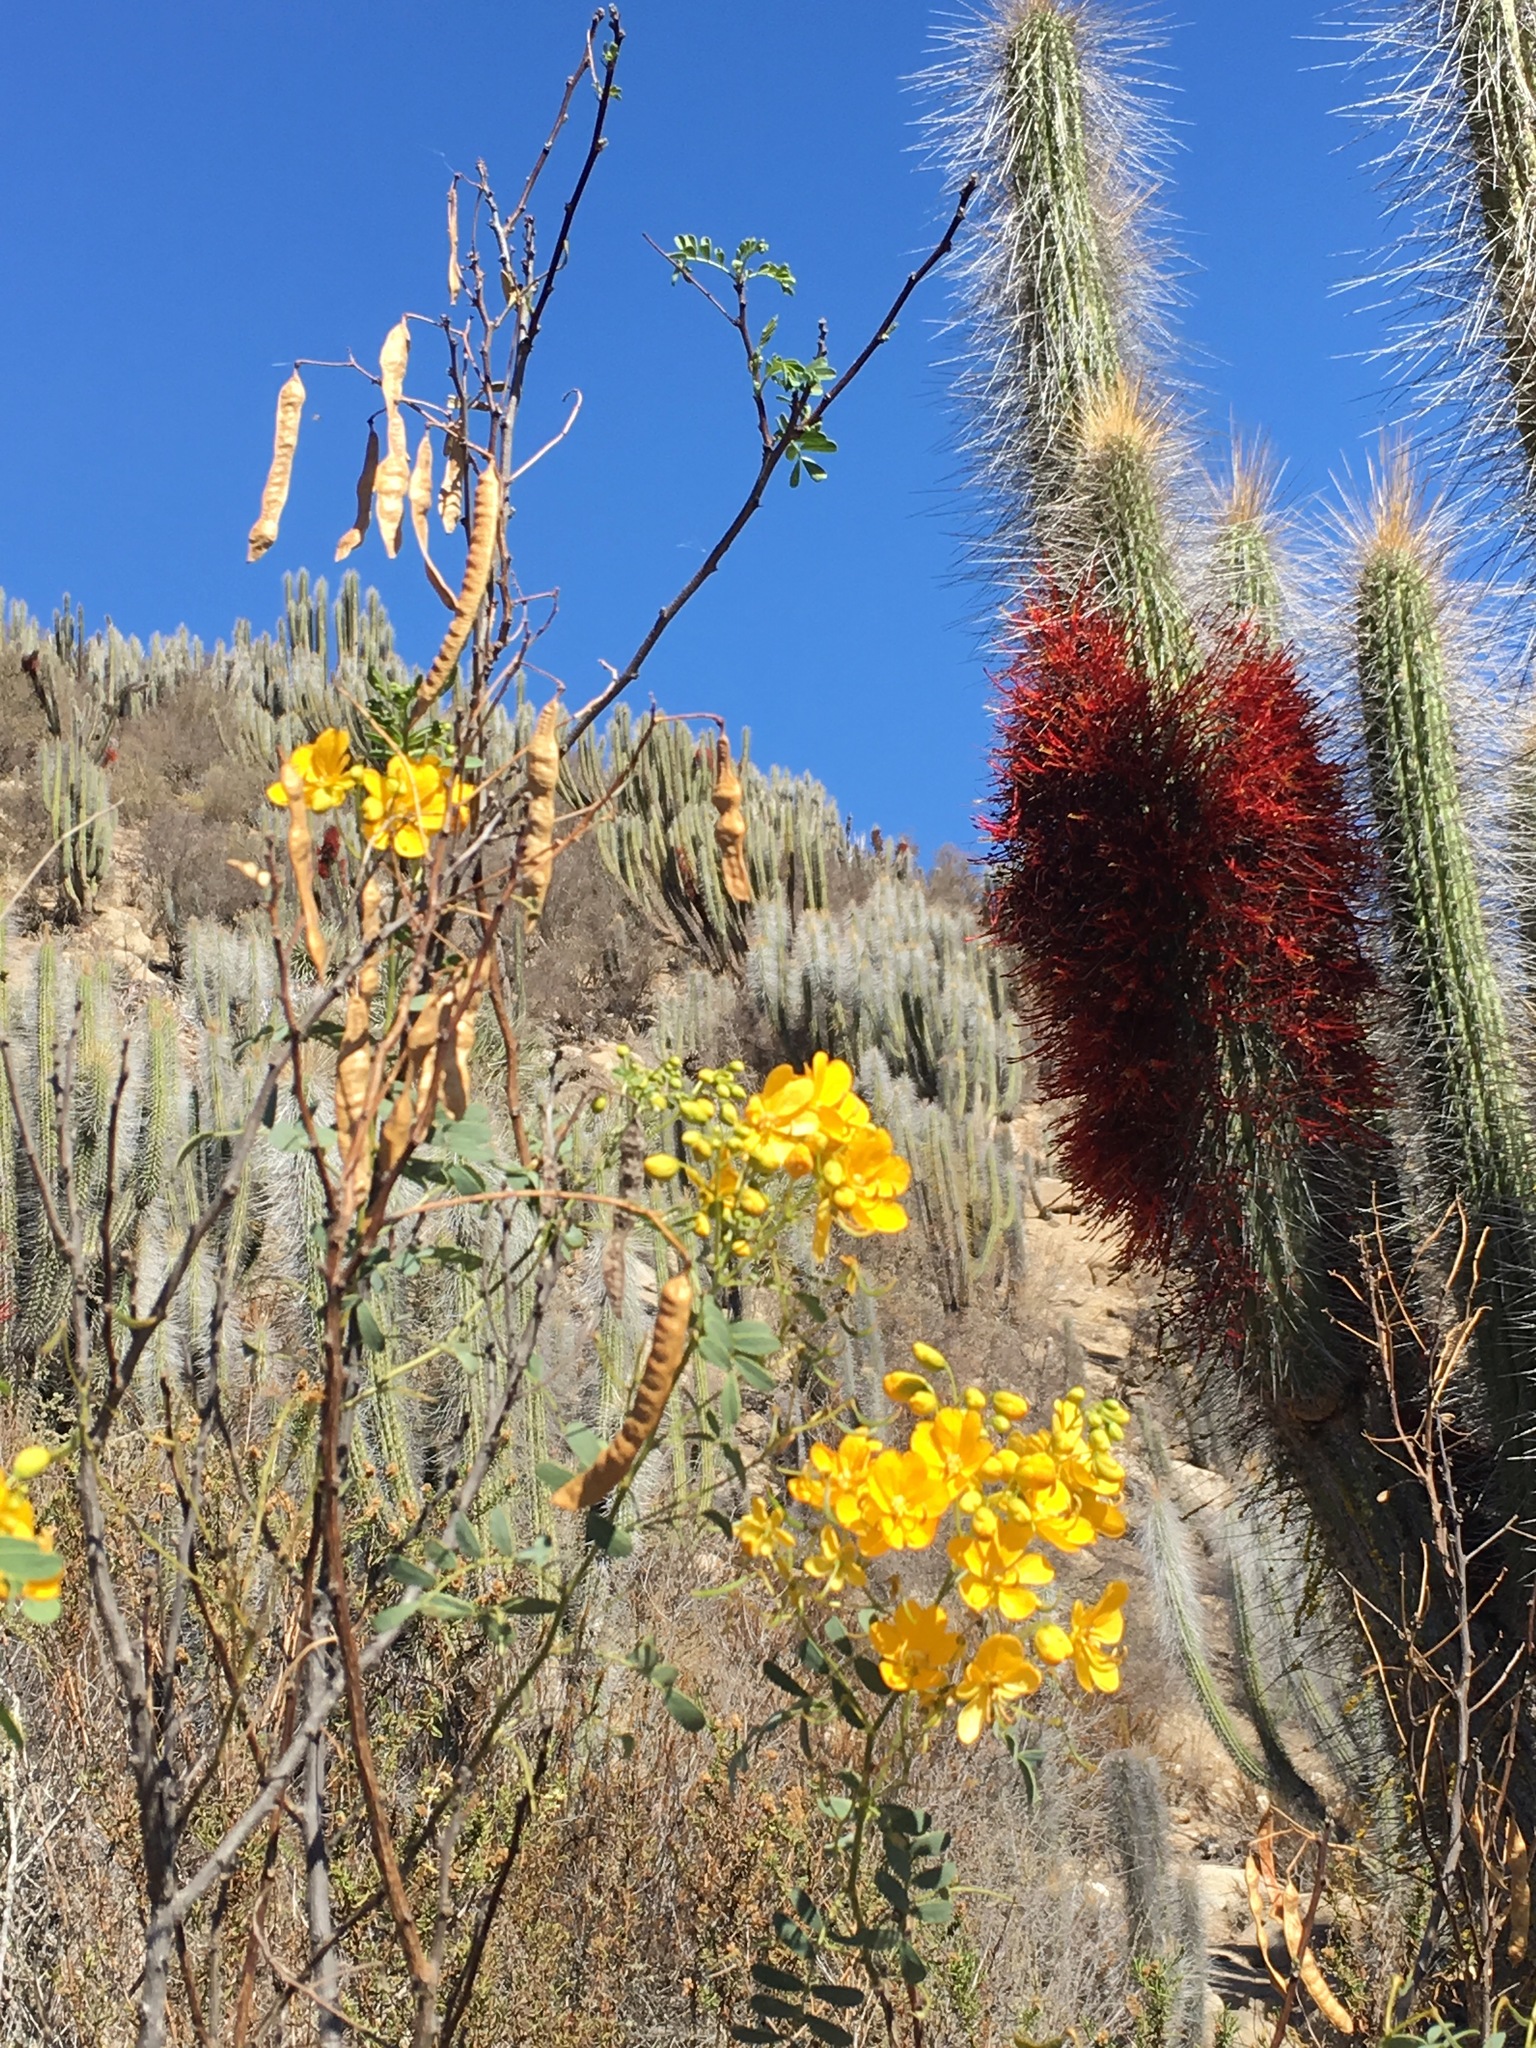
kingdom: Plantae
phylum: Tracheophyta
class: Magnoliopsida
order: Fabales
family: Fabaceae
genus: Senna
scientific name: Senna candolleana
